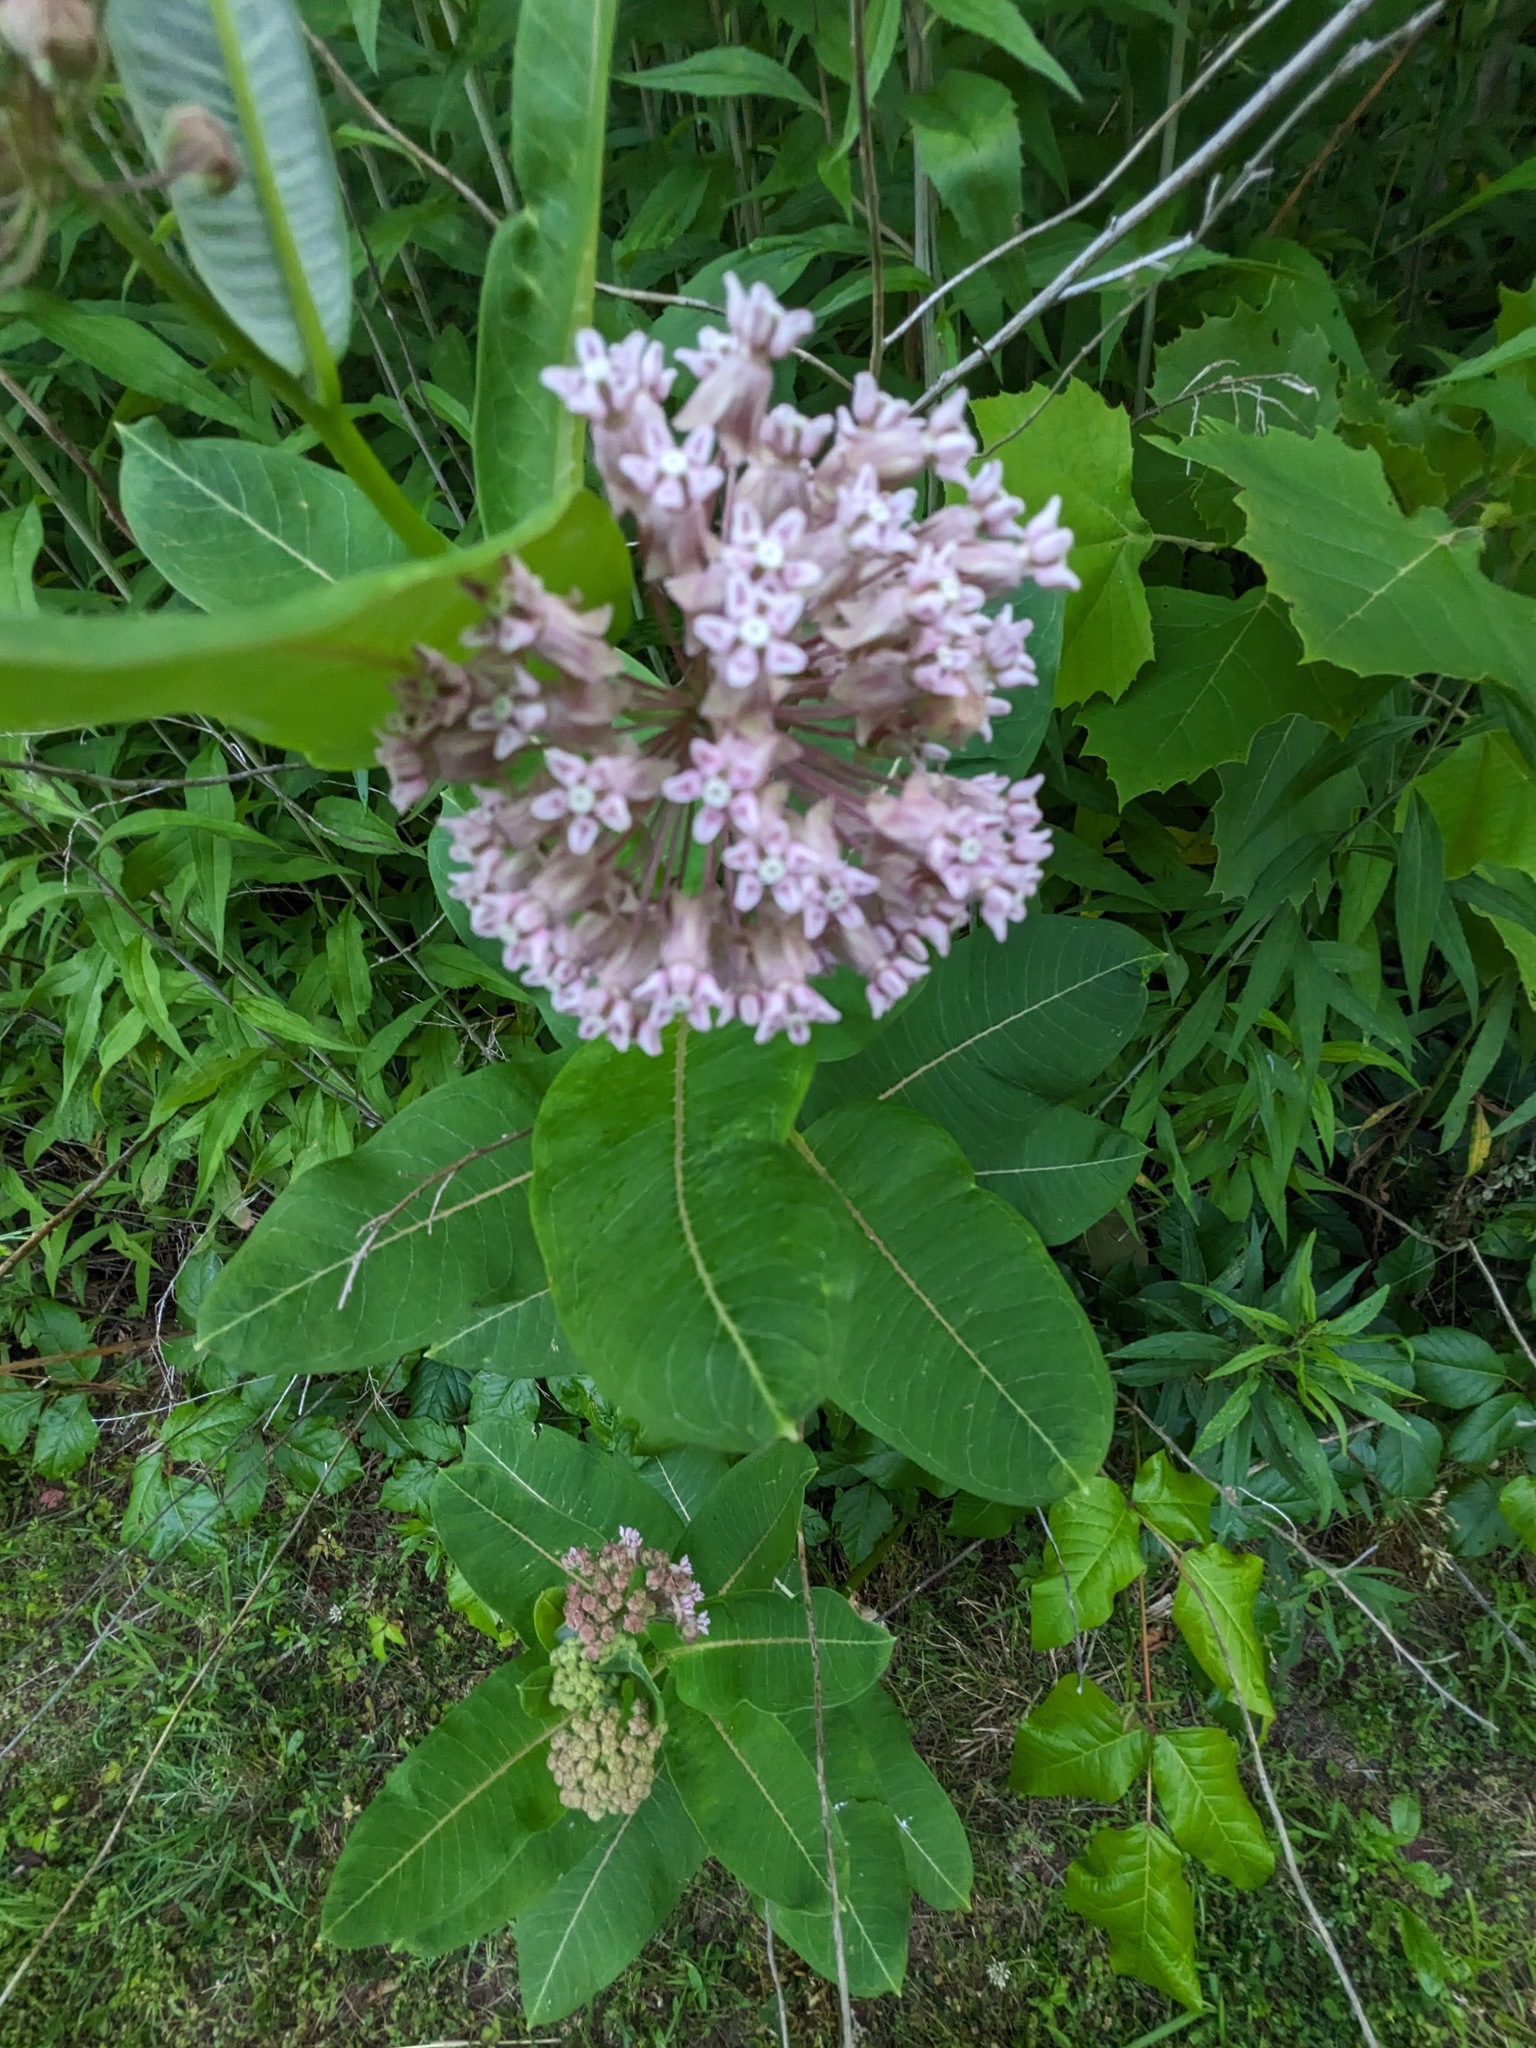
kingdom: Plantae
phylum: Tracheophyta
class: Magnoliopsida
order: Gentianales
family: Apocynaceae
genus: Asclepias
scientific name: Asclepias syriaca
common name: Common milkweed
